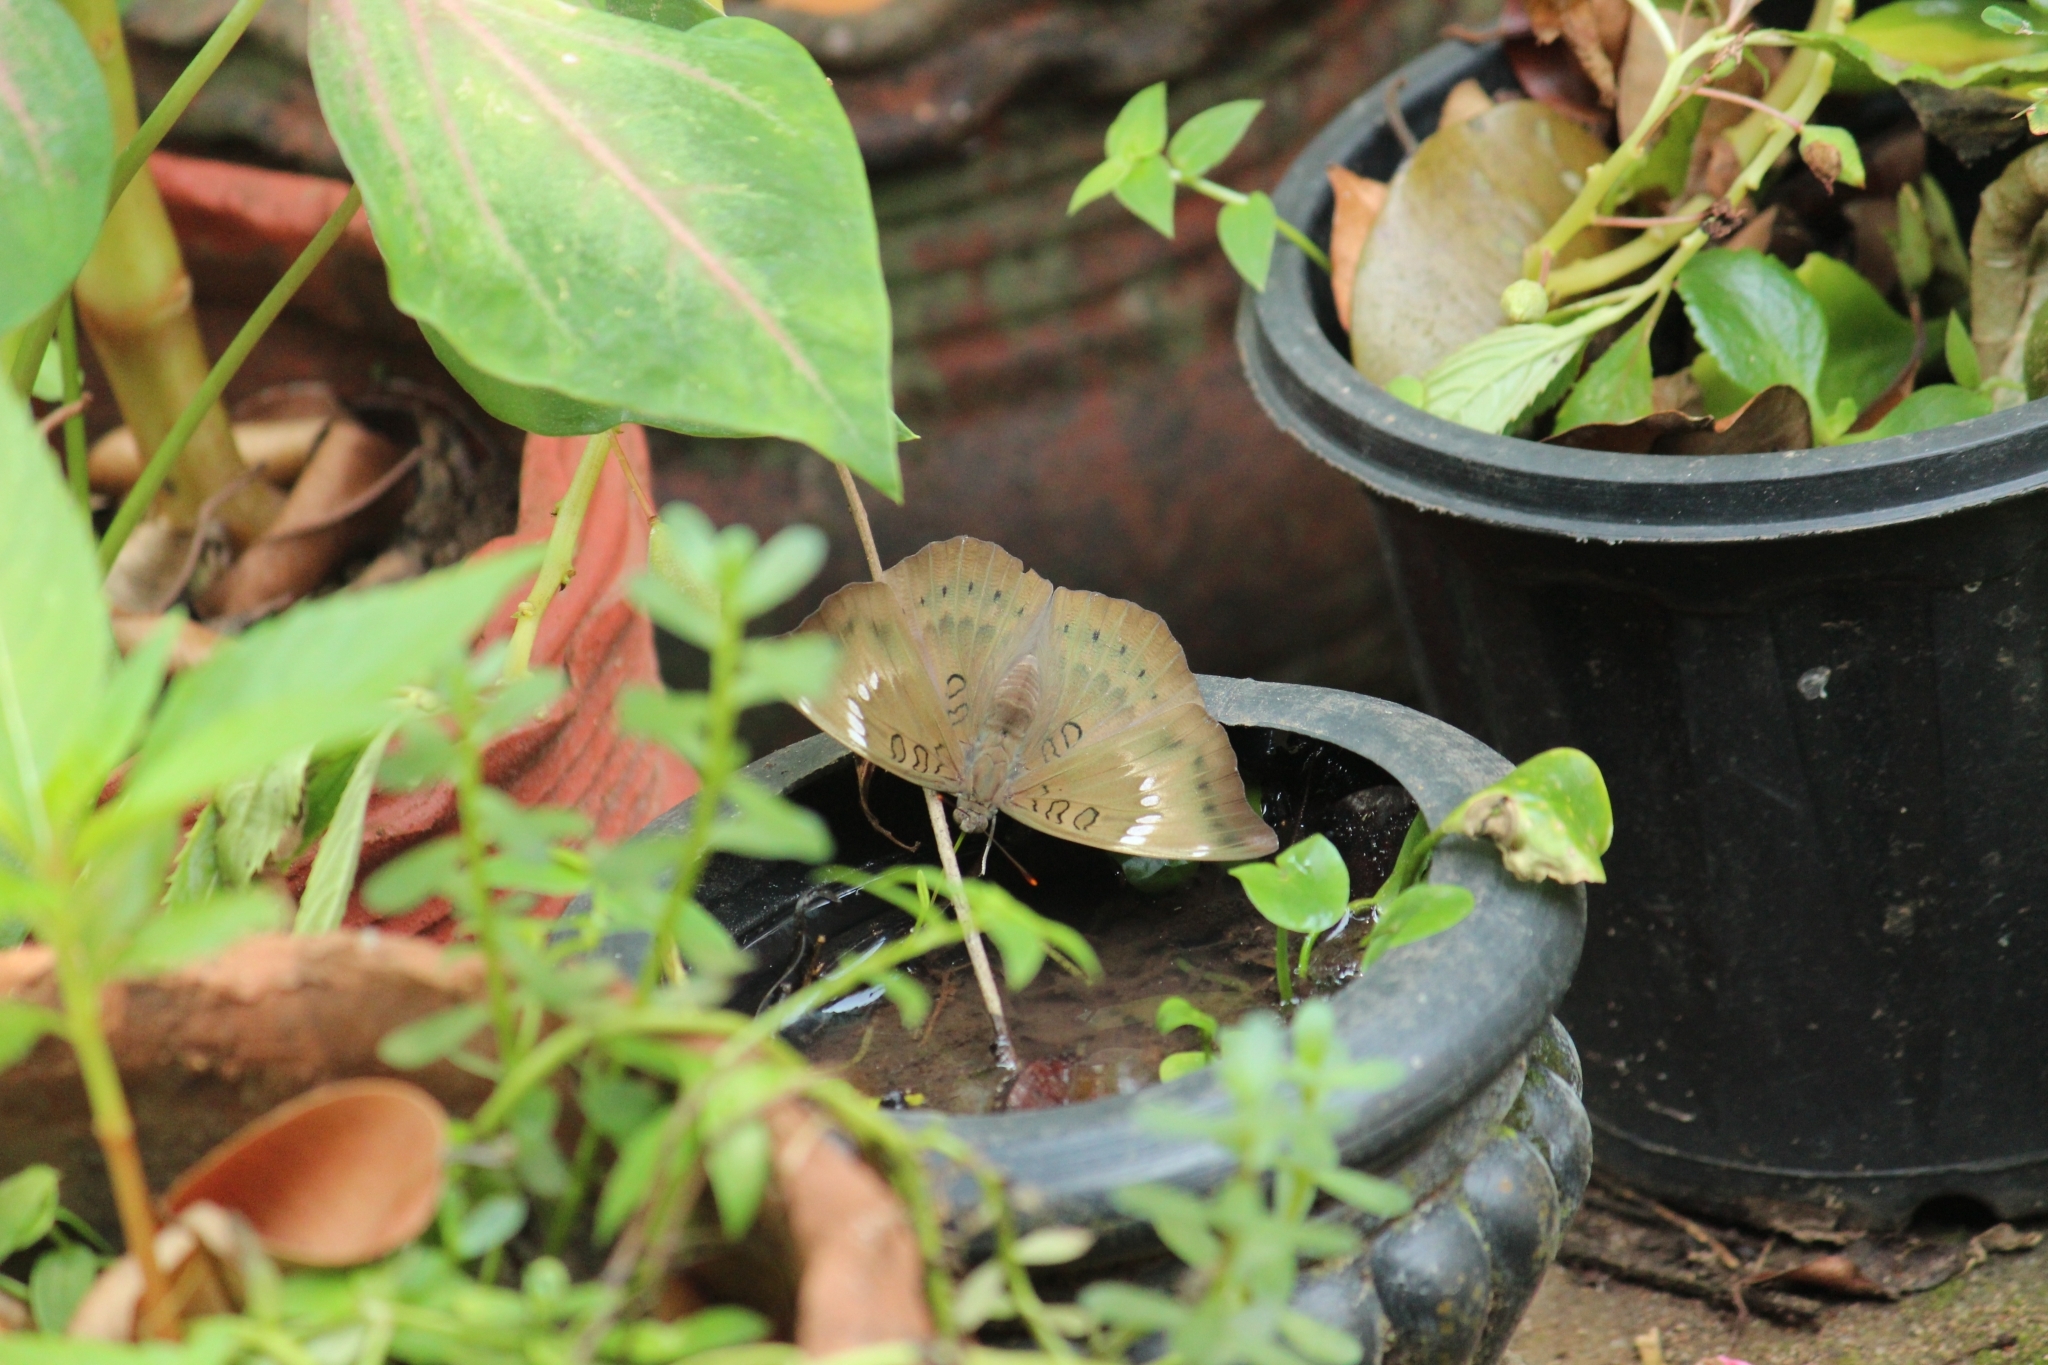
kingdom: Animalia
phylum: Arthropoda
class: Insecta
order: Lepidoptera
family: Nymphalidae
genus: Euthalia
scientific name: Euthalia aconthea
